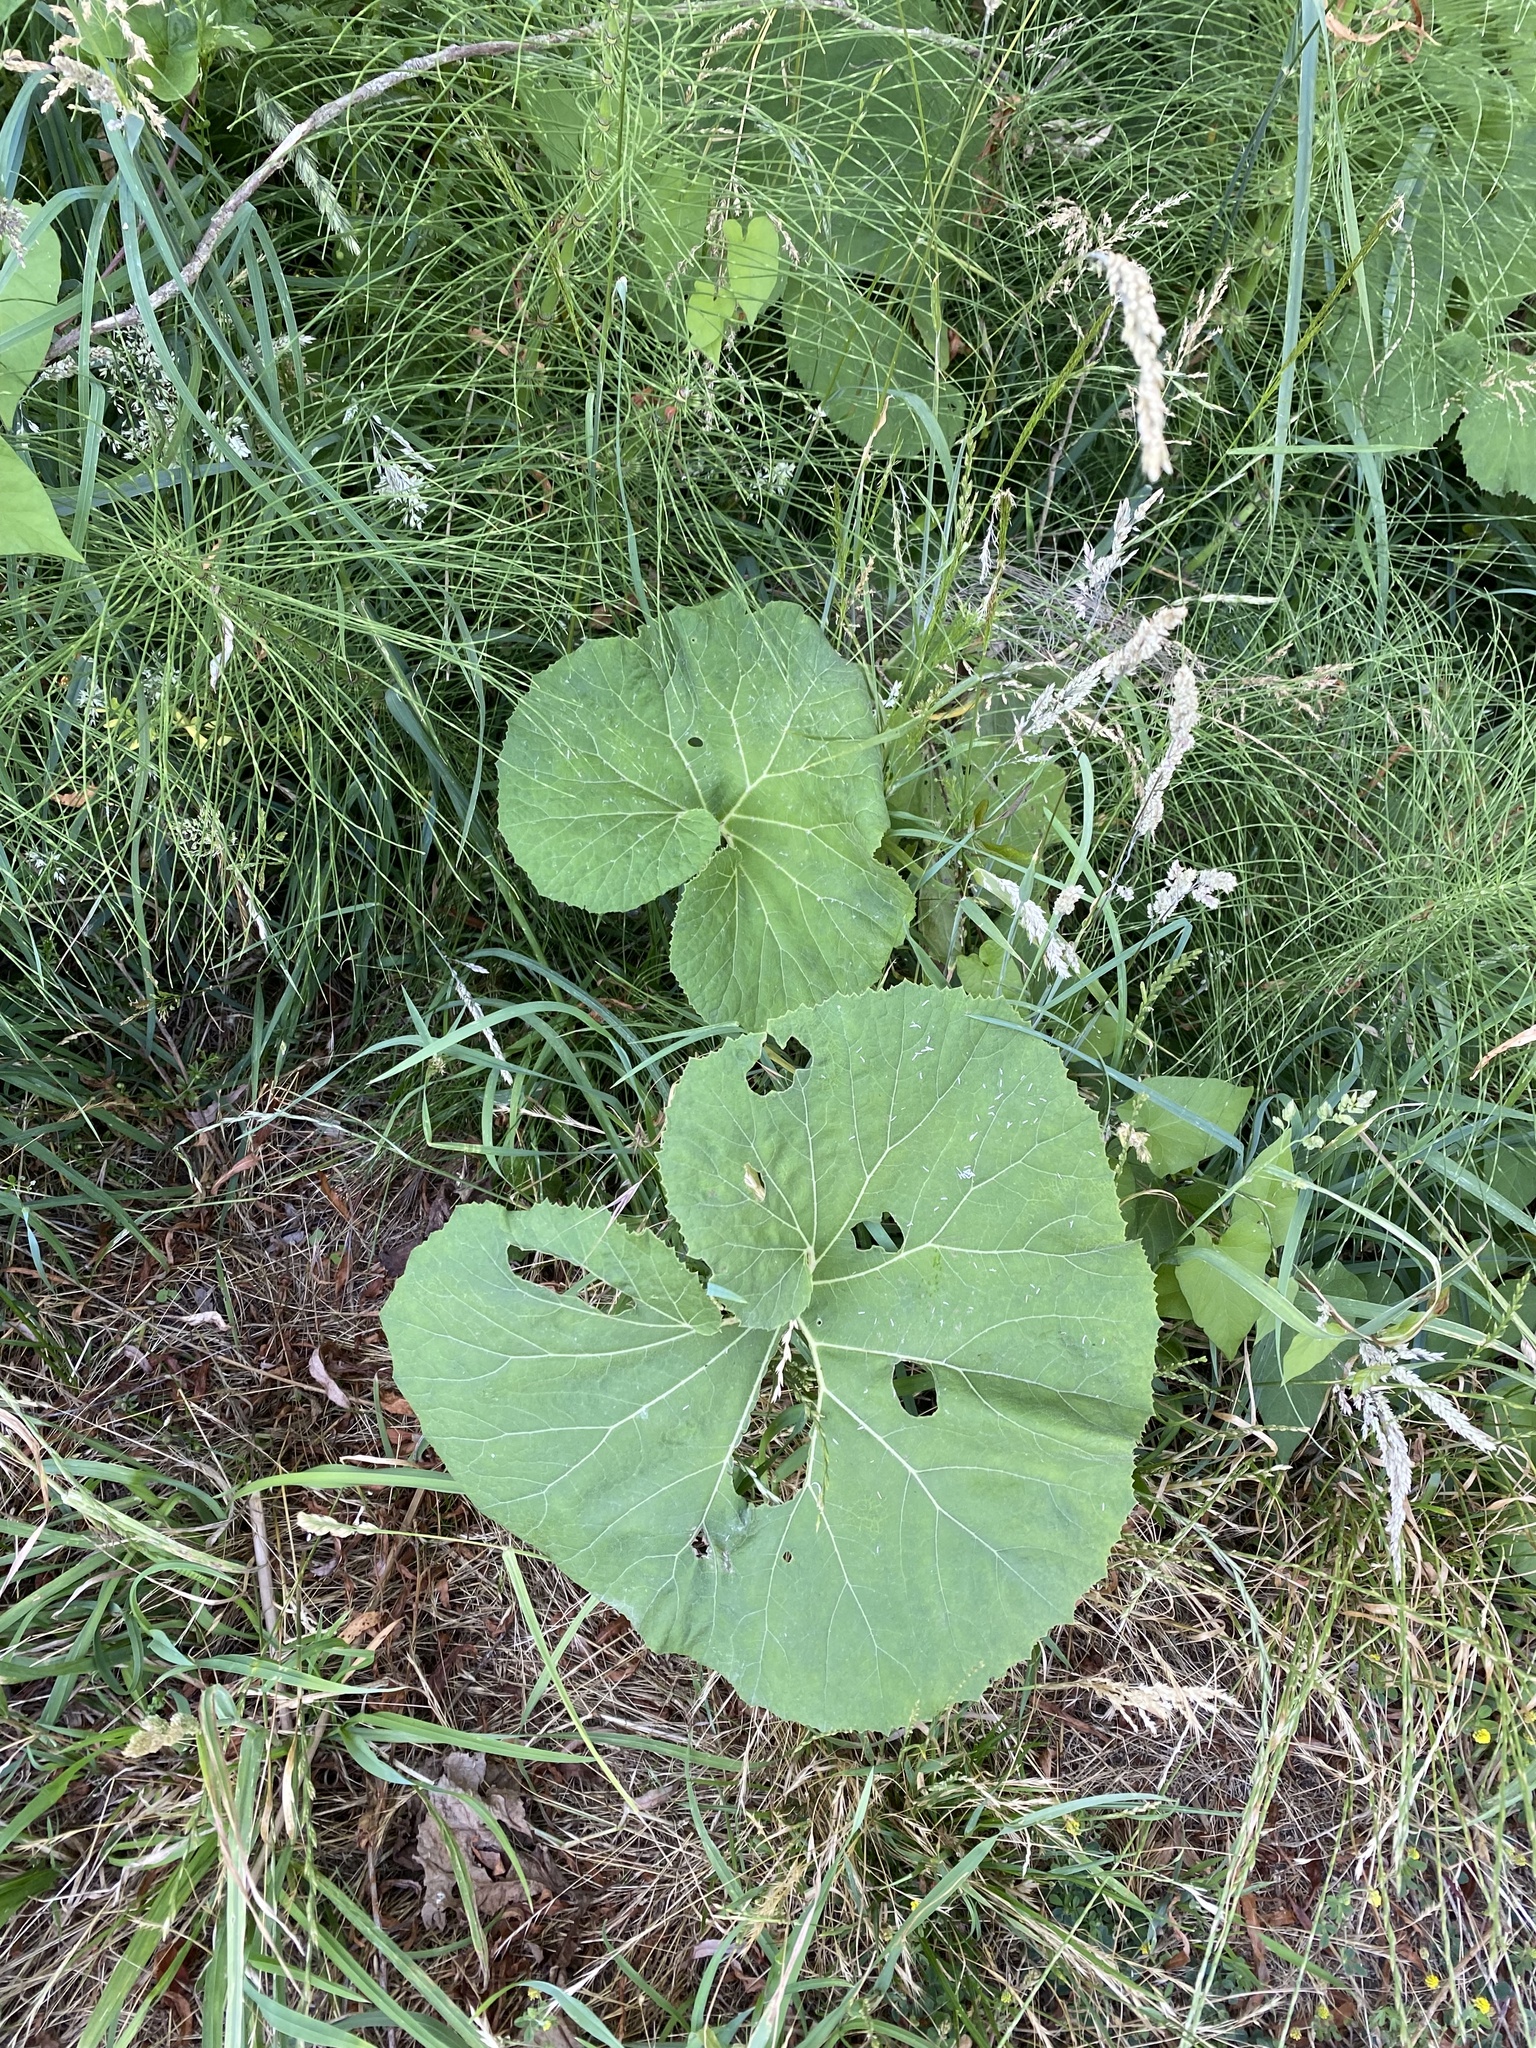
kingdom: Plantae
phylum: Tracheophyta
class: Magnoliopsida
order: Asterales
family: Asteraceae
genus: Petasites
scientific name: Petasites japonicus
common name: Giant butterbur
